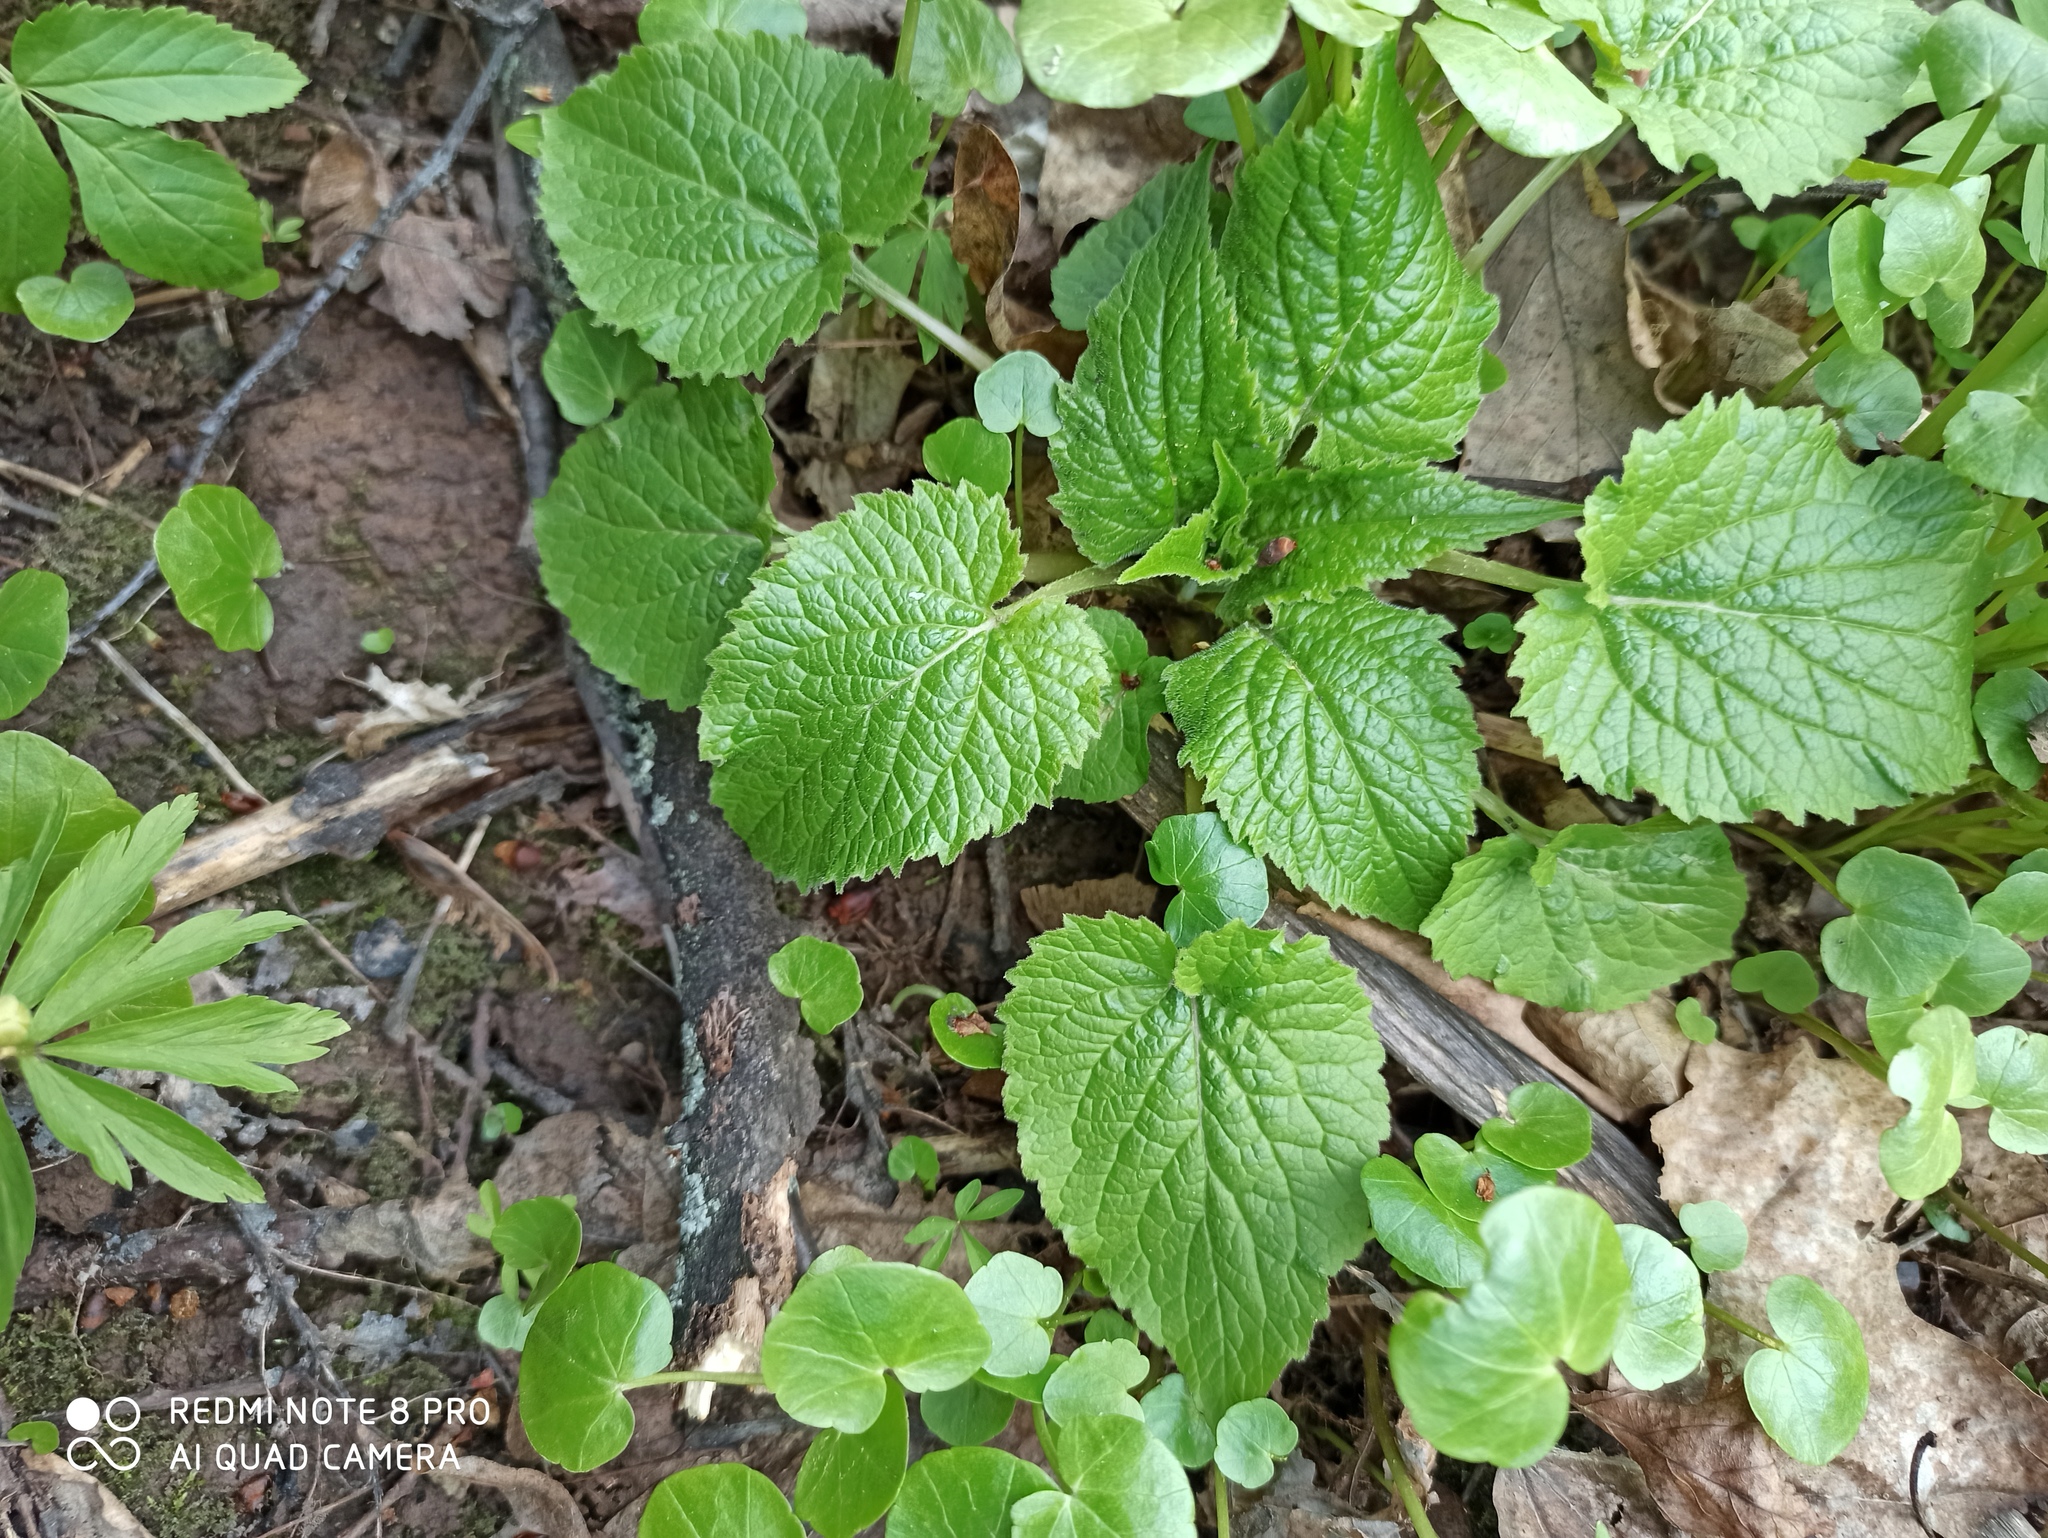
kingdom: Plantae
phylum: Tracheophyta
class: Magnoliopsida
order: Asterales
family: Campanulaceae
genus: Campanula
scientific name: Campanula latifolia
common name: Giant bellflower
